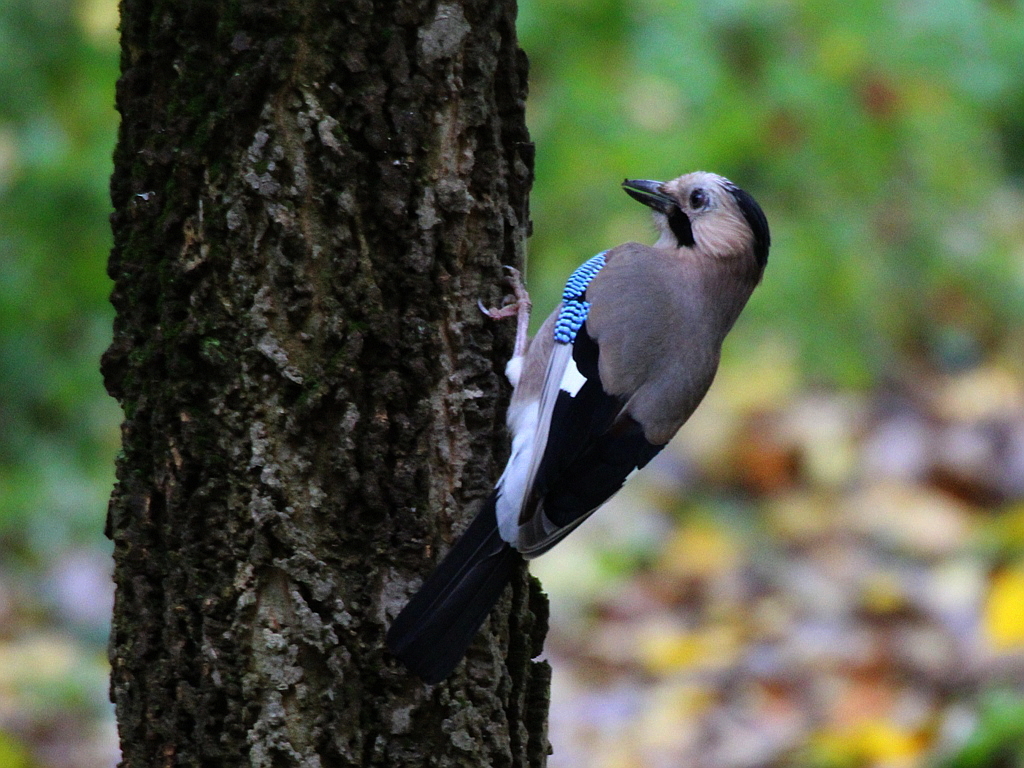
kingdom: Animalia
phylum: Chordata
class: Aves
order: Passeriformes
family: Corvidae
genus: Garrulus
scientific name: Garrulus glandarius
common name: Eurasian jay
